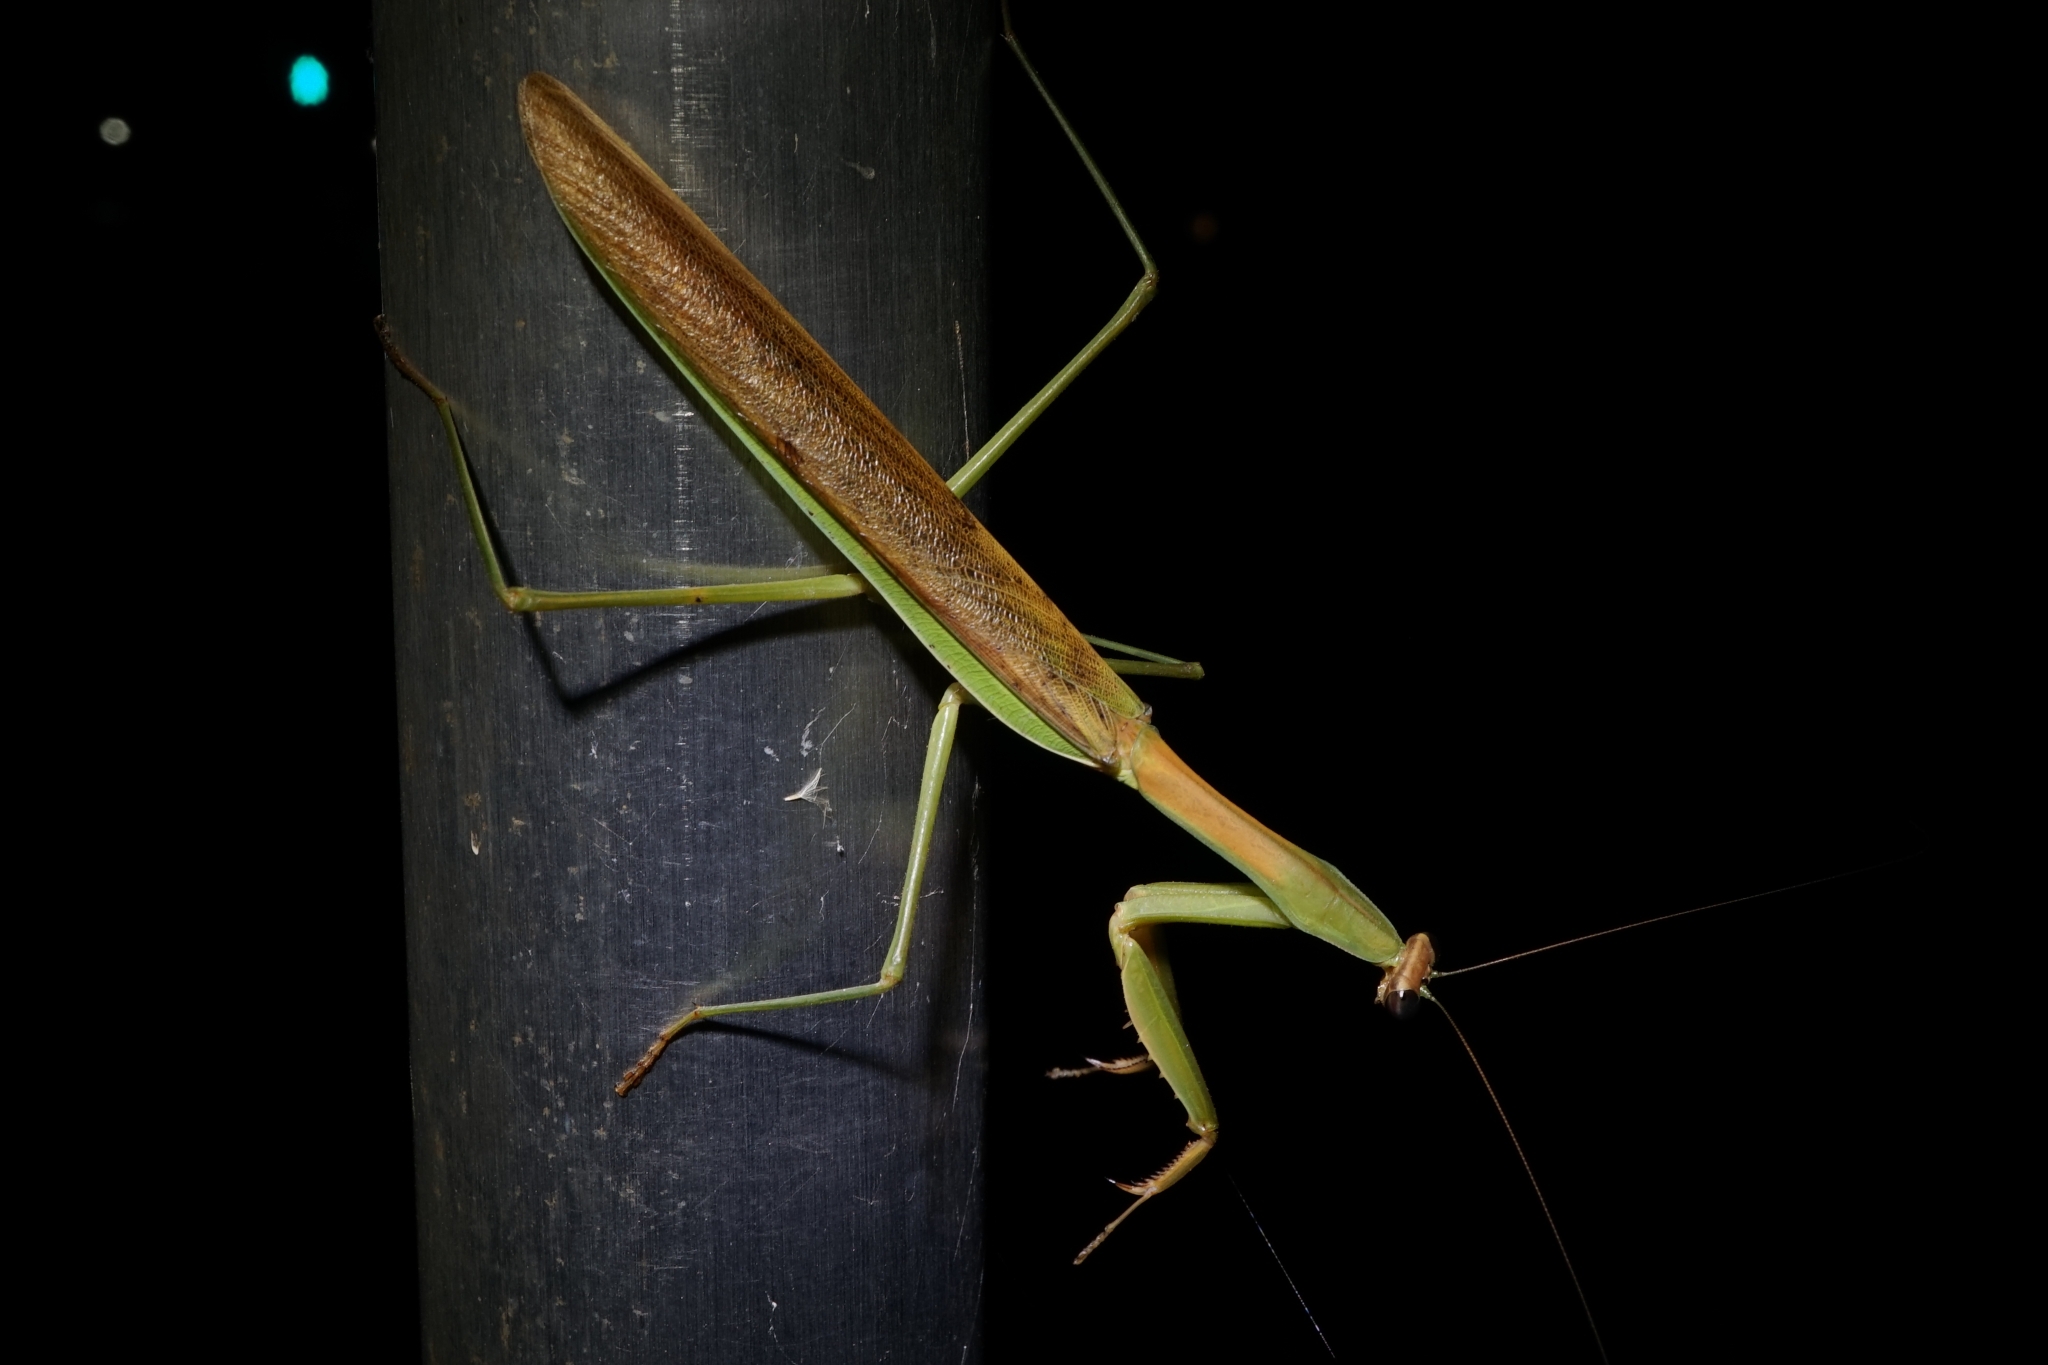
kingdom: Animalia
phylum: Arthropoda
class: Insecta
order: Mantodea
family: Mantidae
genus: Tenodera
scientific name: Tenodera sinensis
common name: Chinese mantis
